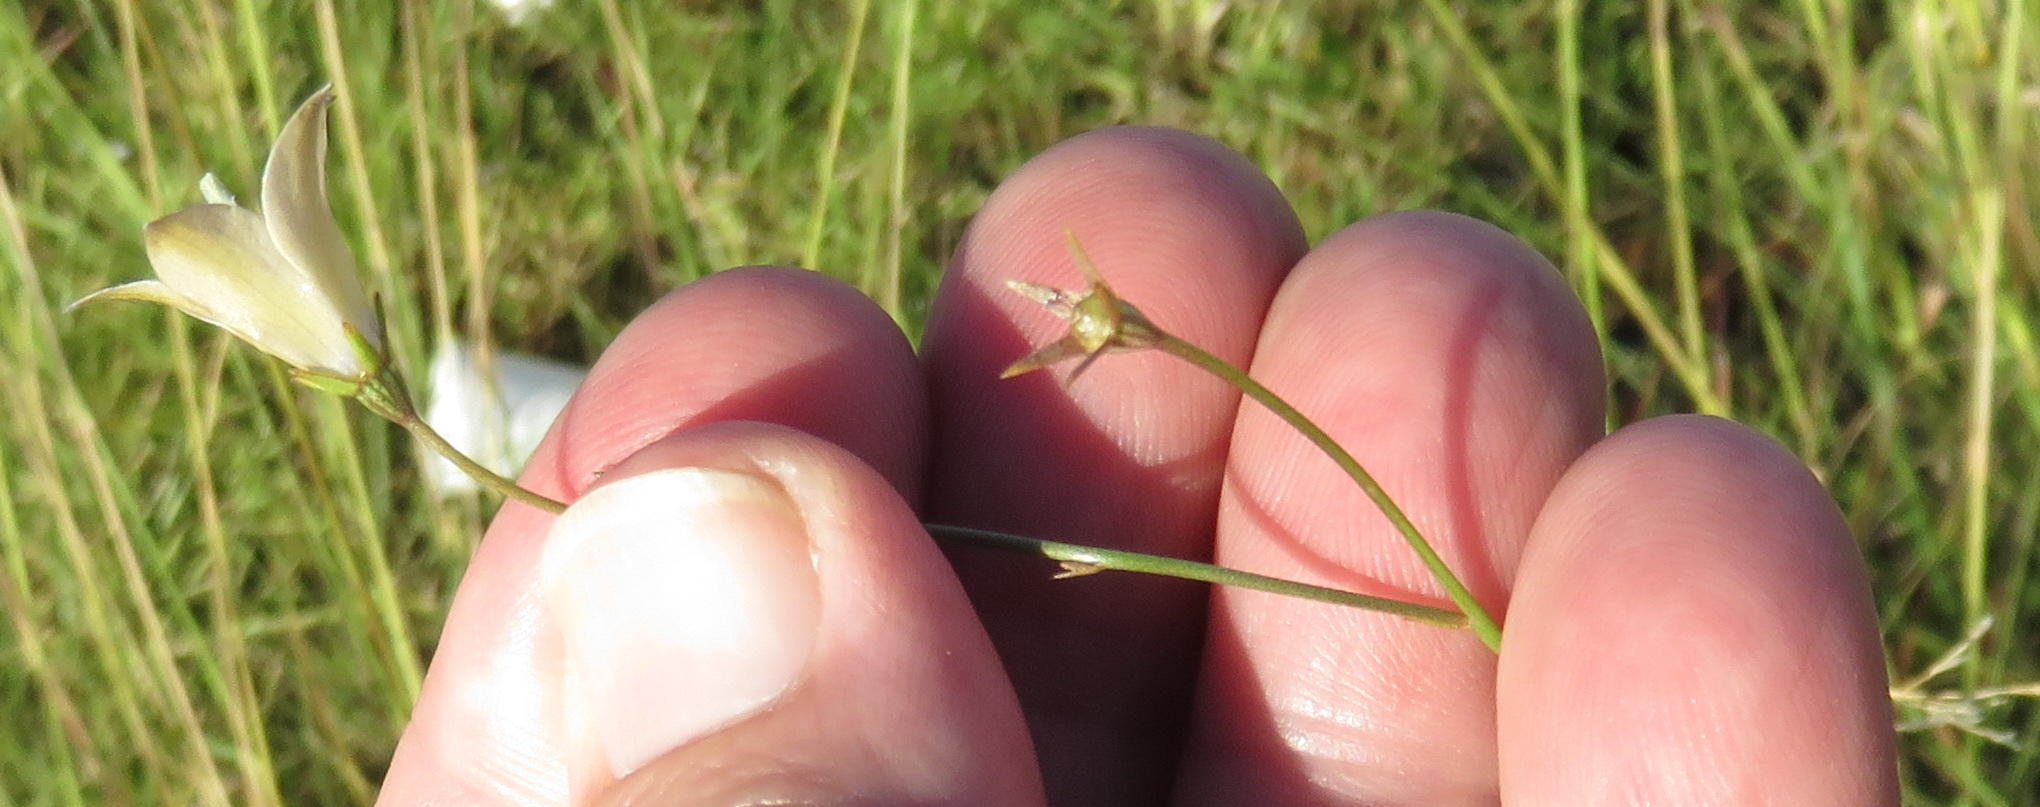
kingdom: Plantae
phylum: Tracheophyta
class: Magnoliopsida
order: Asterales
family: Campanulaceae
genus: Wahlenbergia
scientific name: Wahlenbergia virgata
